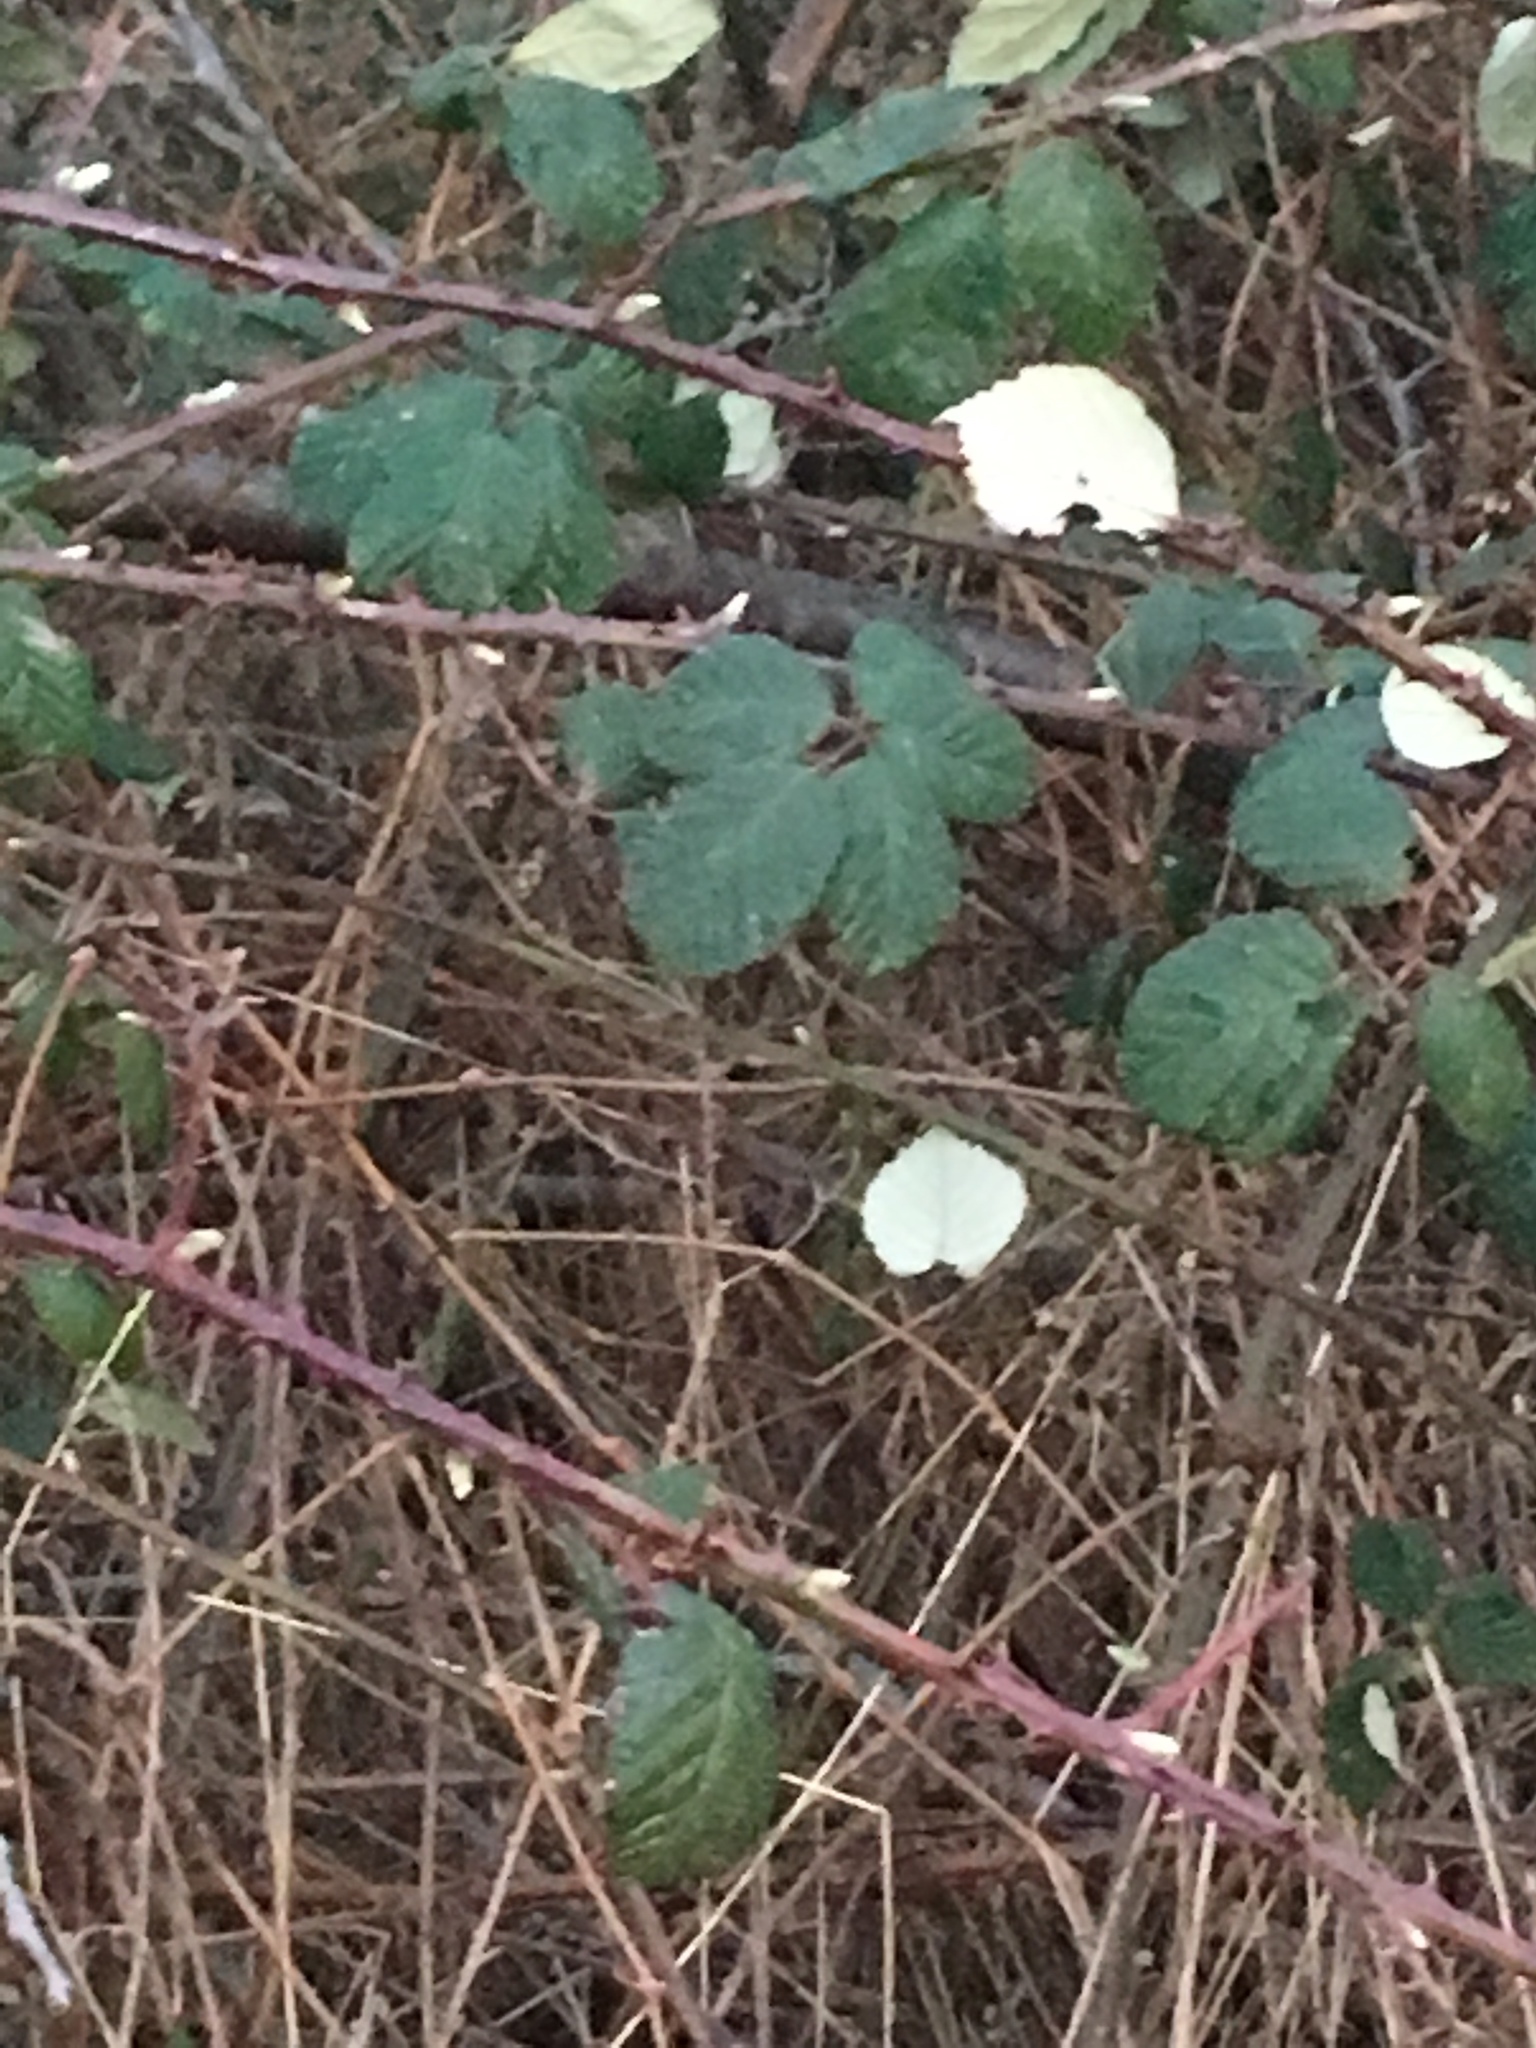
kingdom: Plantae
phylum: Tracheophyta
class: Magnoliopsida
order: Rosales
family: Rosaceae
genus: Rubus
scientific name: Rubus armeniacus
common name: Himalayan blackberry
